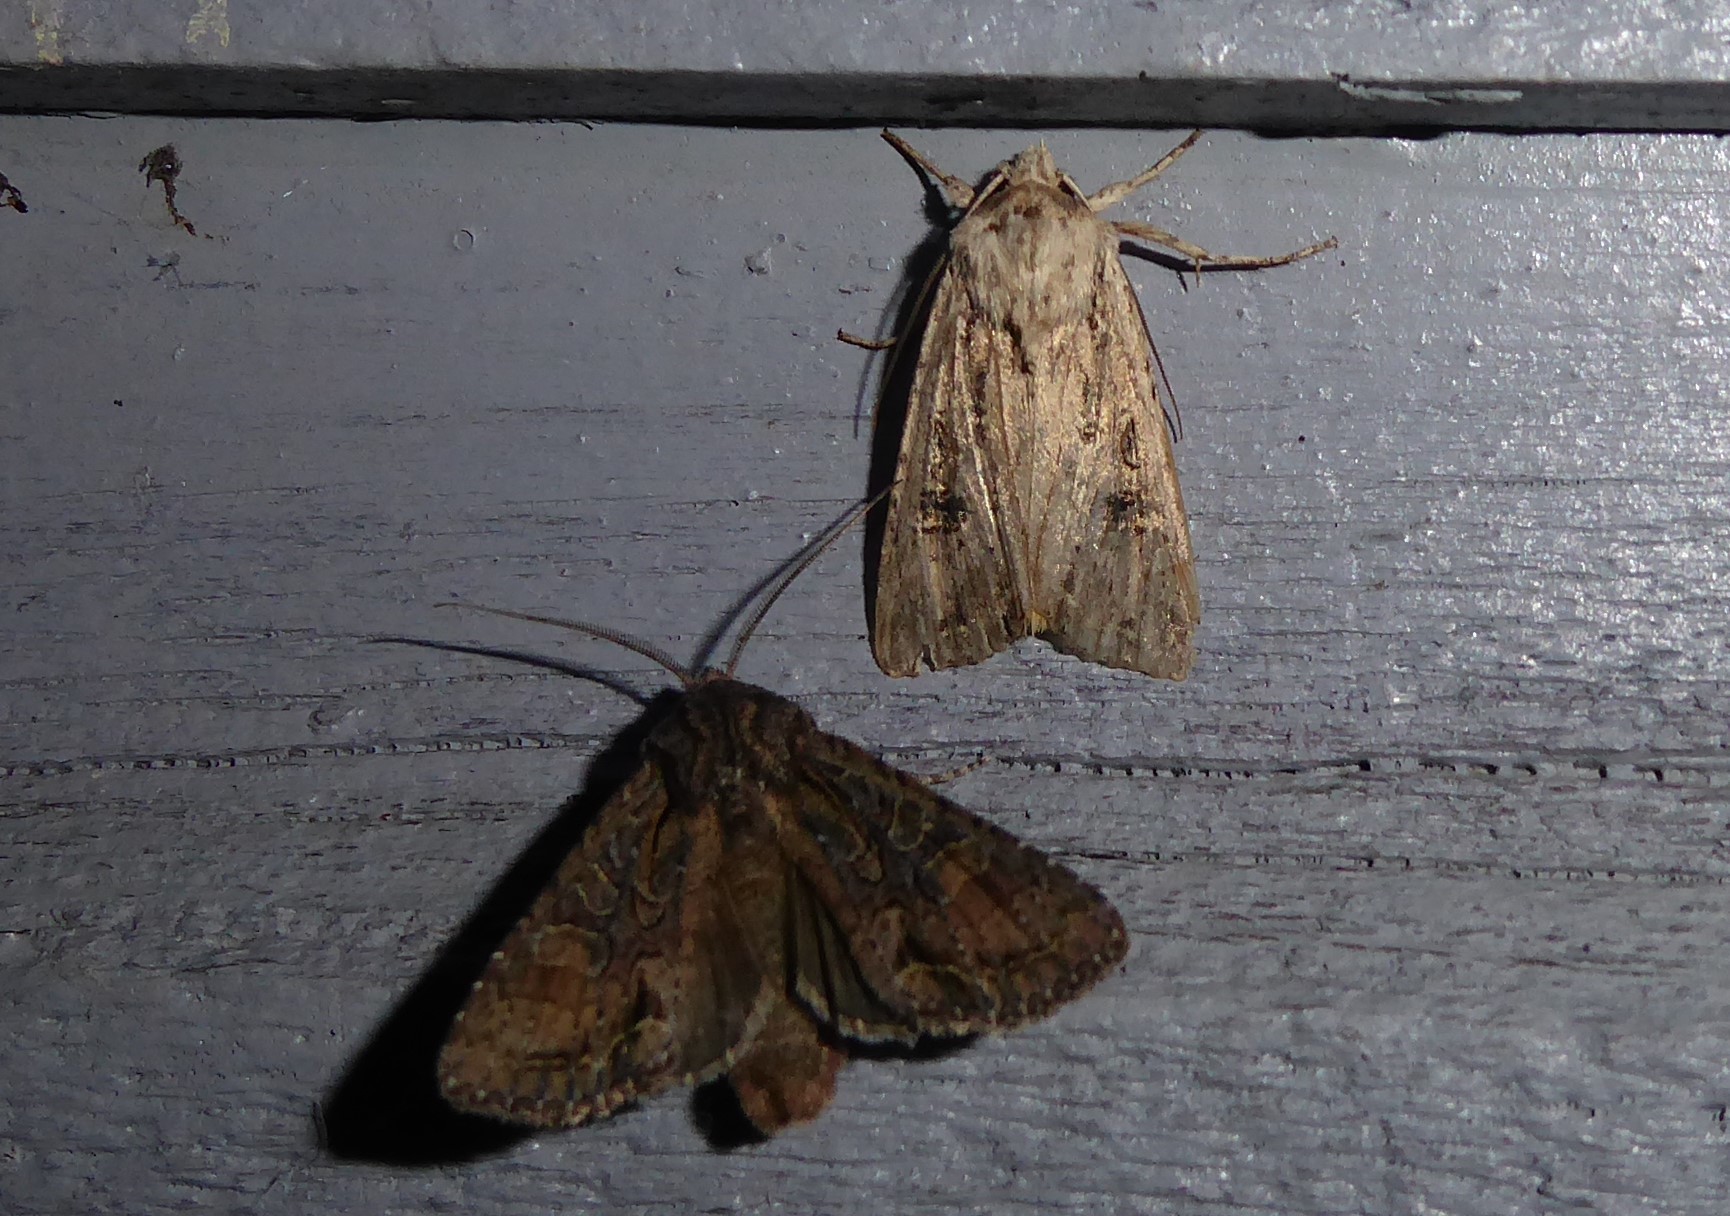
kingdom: Animalia
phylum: Arthropoda
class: Insecta
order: Lepidoptera
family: Noctuidae
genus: Ichneutica
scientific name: Ichneutica mutans
